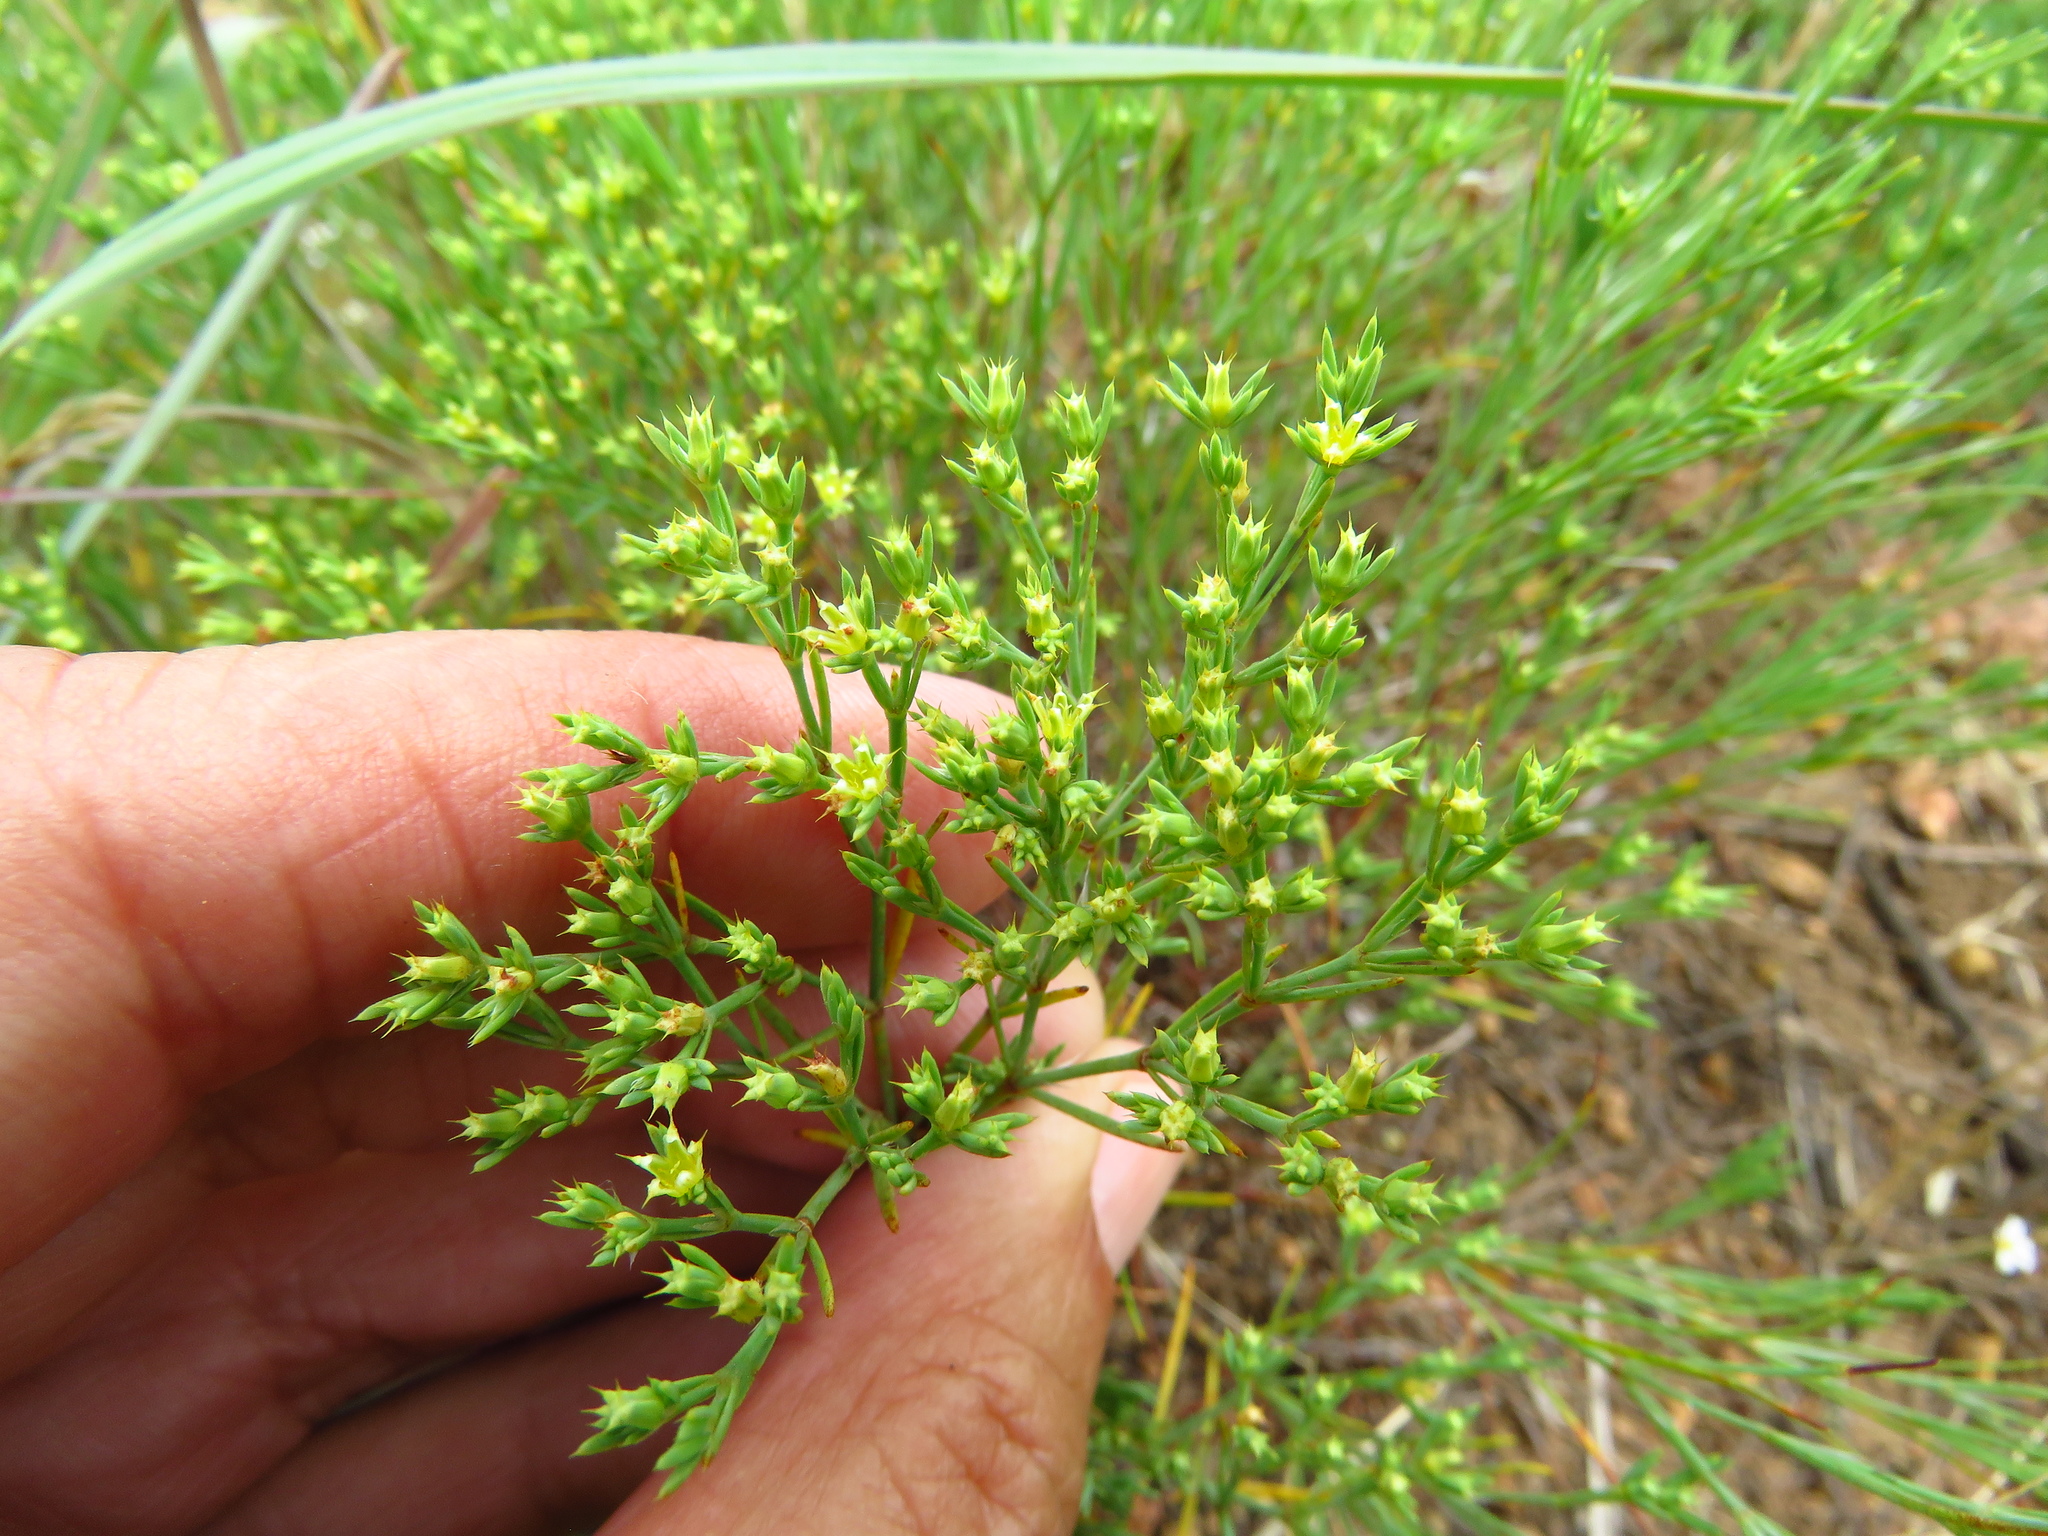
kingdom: Plantae
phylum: Tracheophyta
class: Magnoliopsida
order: Caryophyllales
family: Caryophyllaceae
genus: Paronychia
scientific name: Paronychia jamesii
